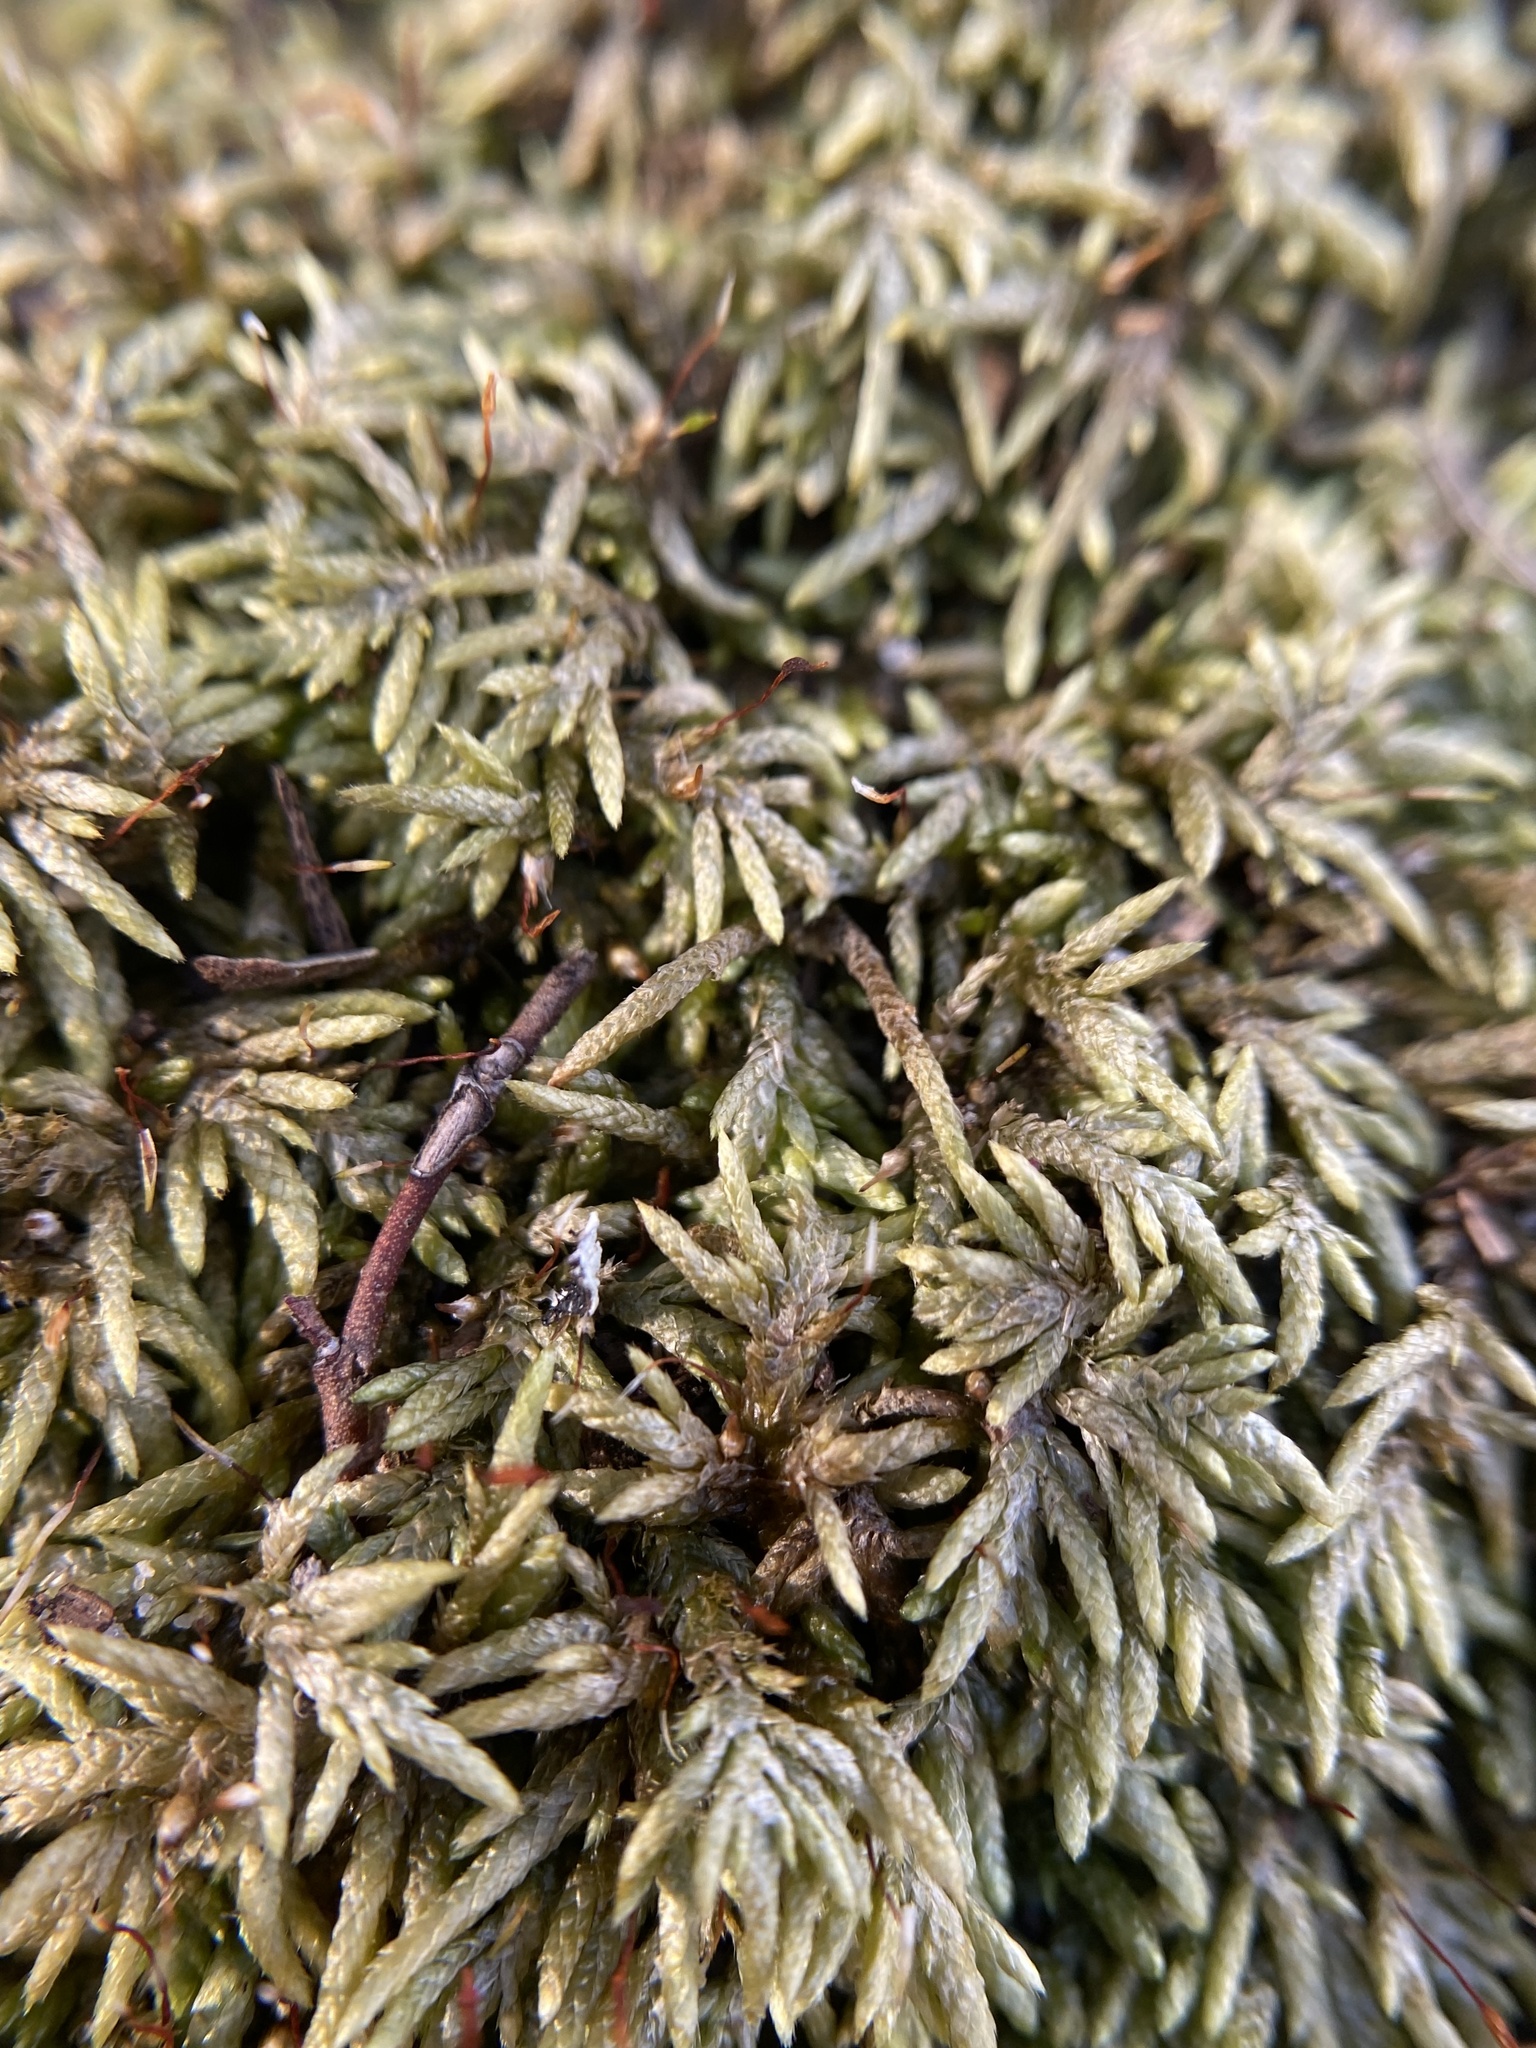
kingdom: Plantae
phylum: Bryophyta
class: Bryopsida
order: Hypnales
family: Entodontaceae
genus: Entodon
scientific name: Entodon seductrix
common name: Round-stemmed entodon moss
